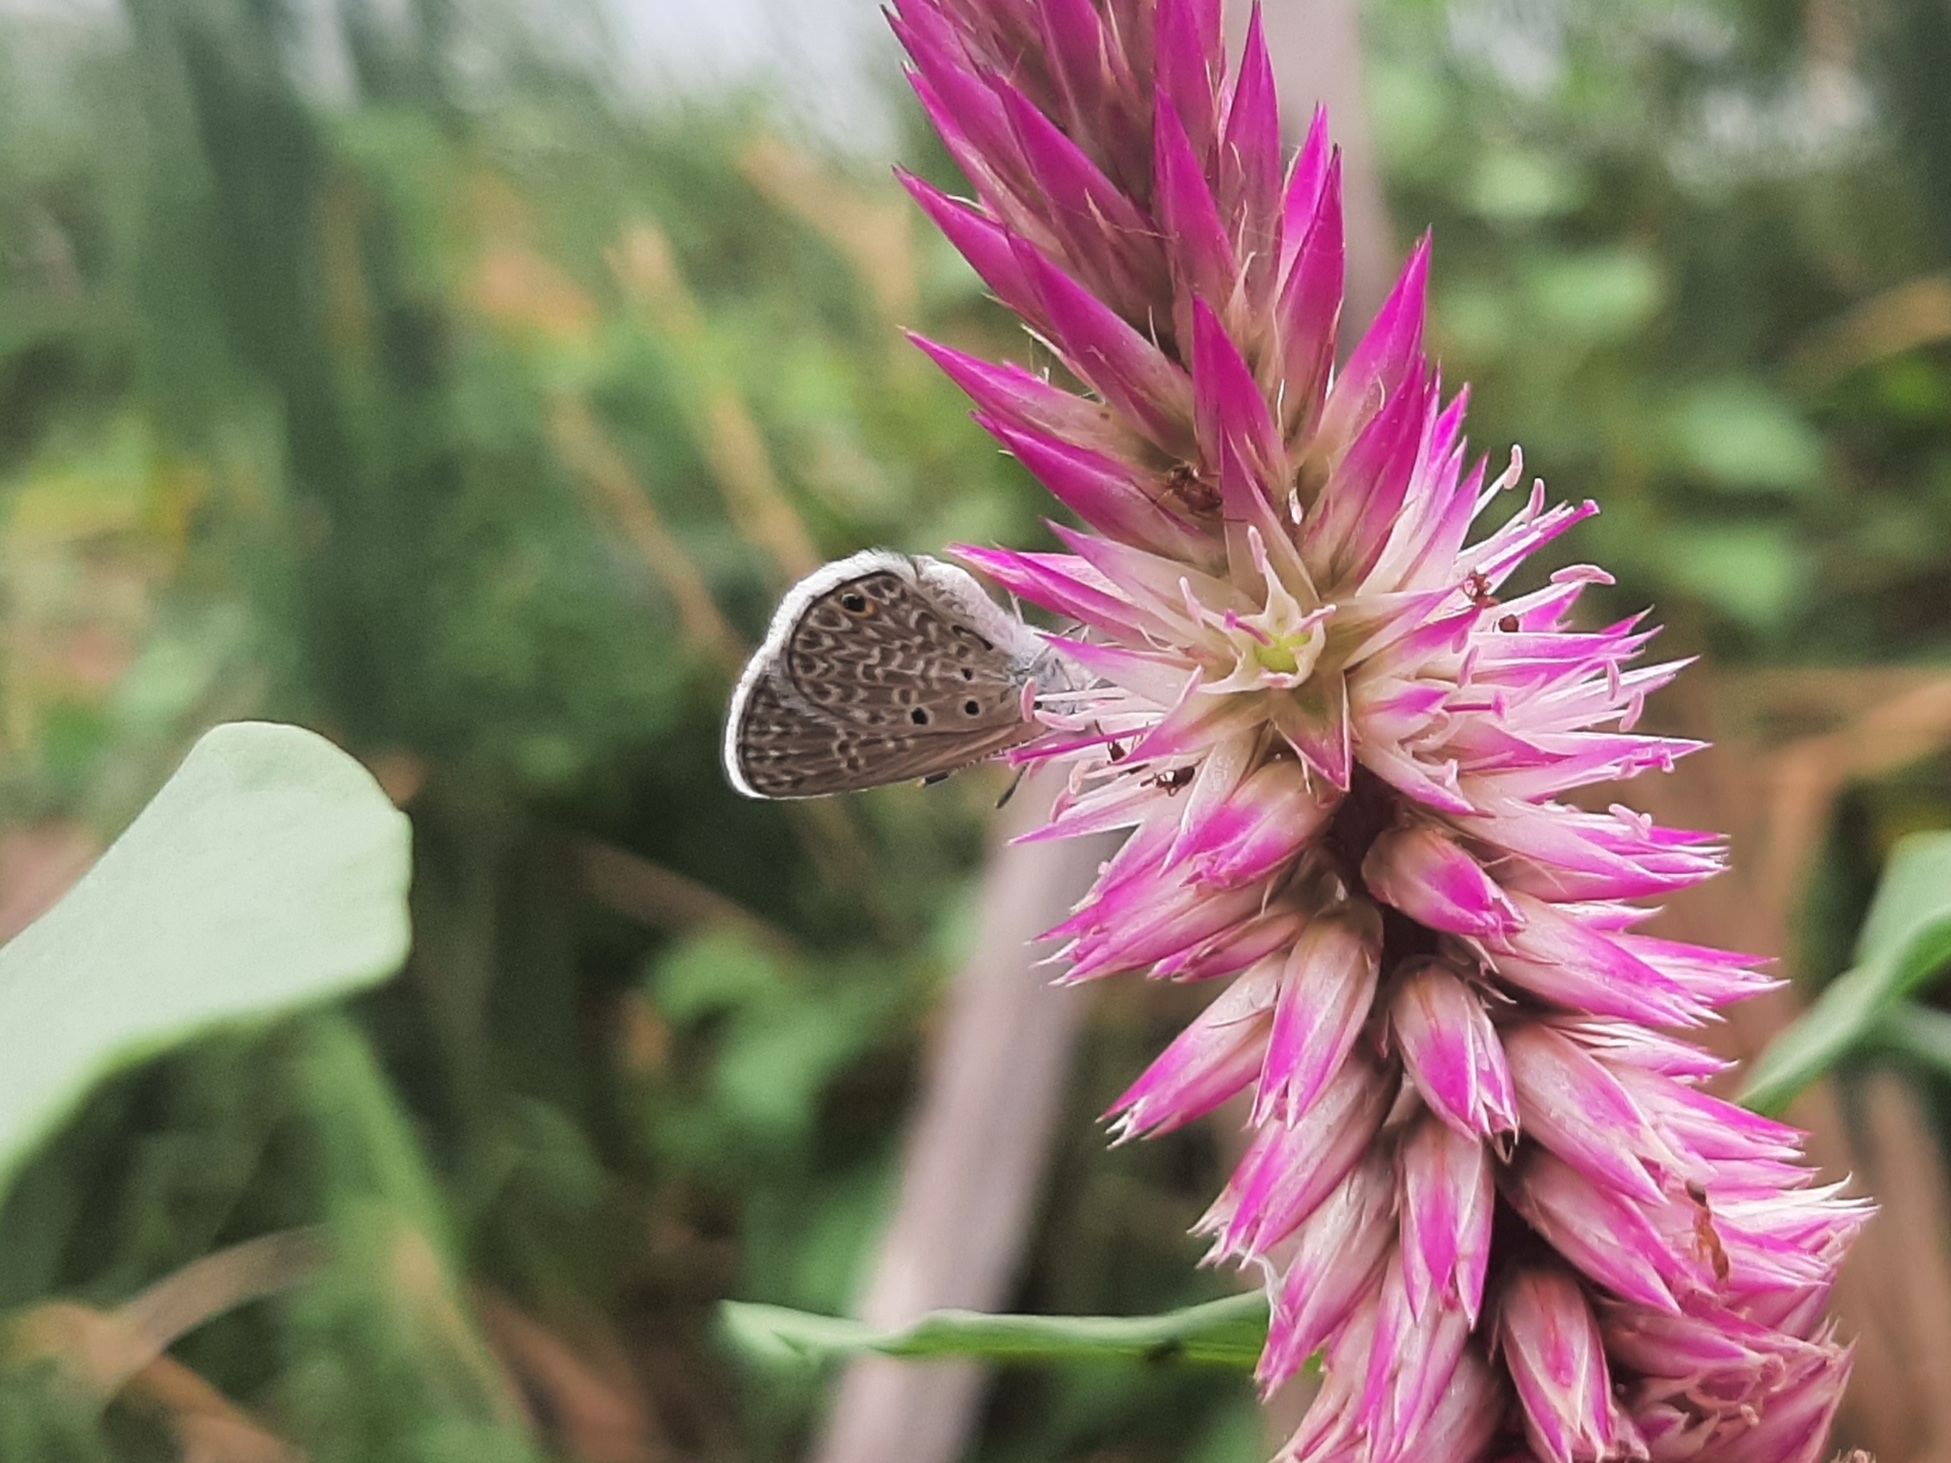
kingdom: Animalia
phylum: Arthropoda
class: Insecta
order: Lepidoptera
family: Lycaenidae
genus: Hemiargus
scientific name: Hemiargus hanno
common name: Common blue
